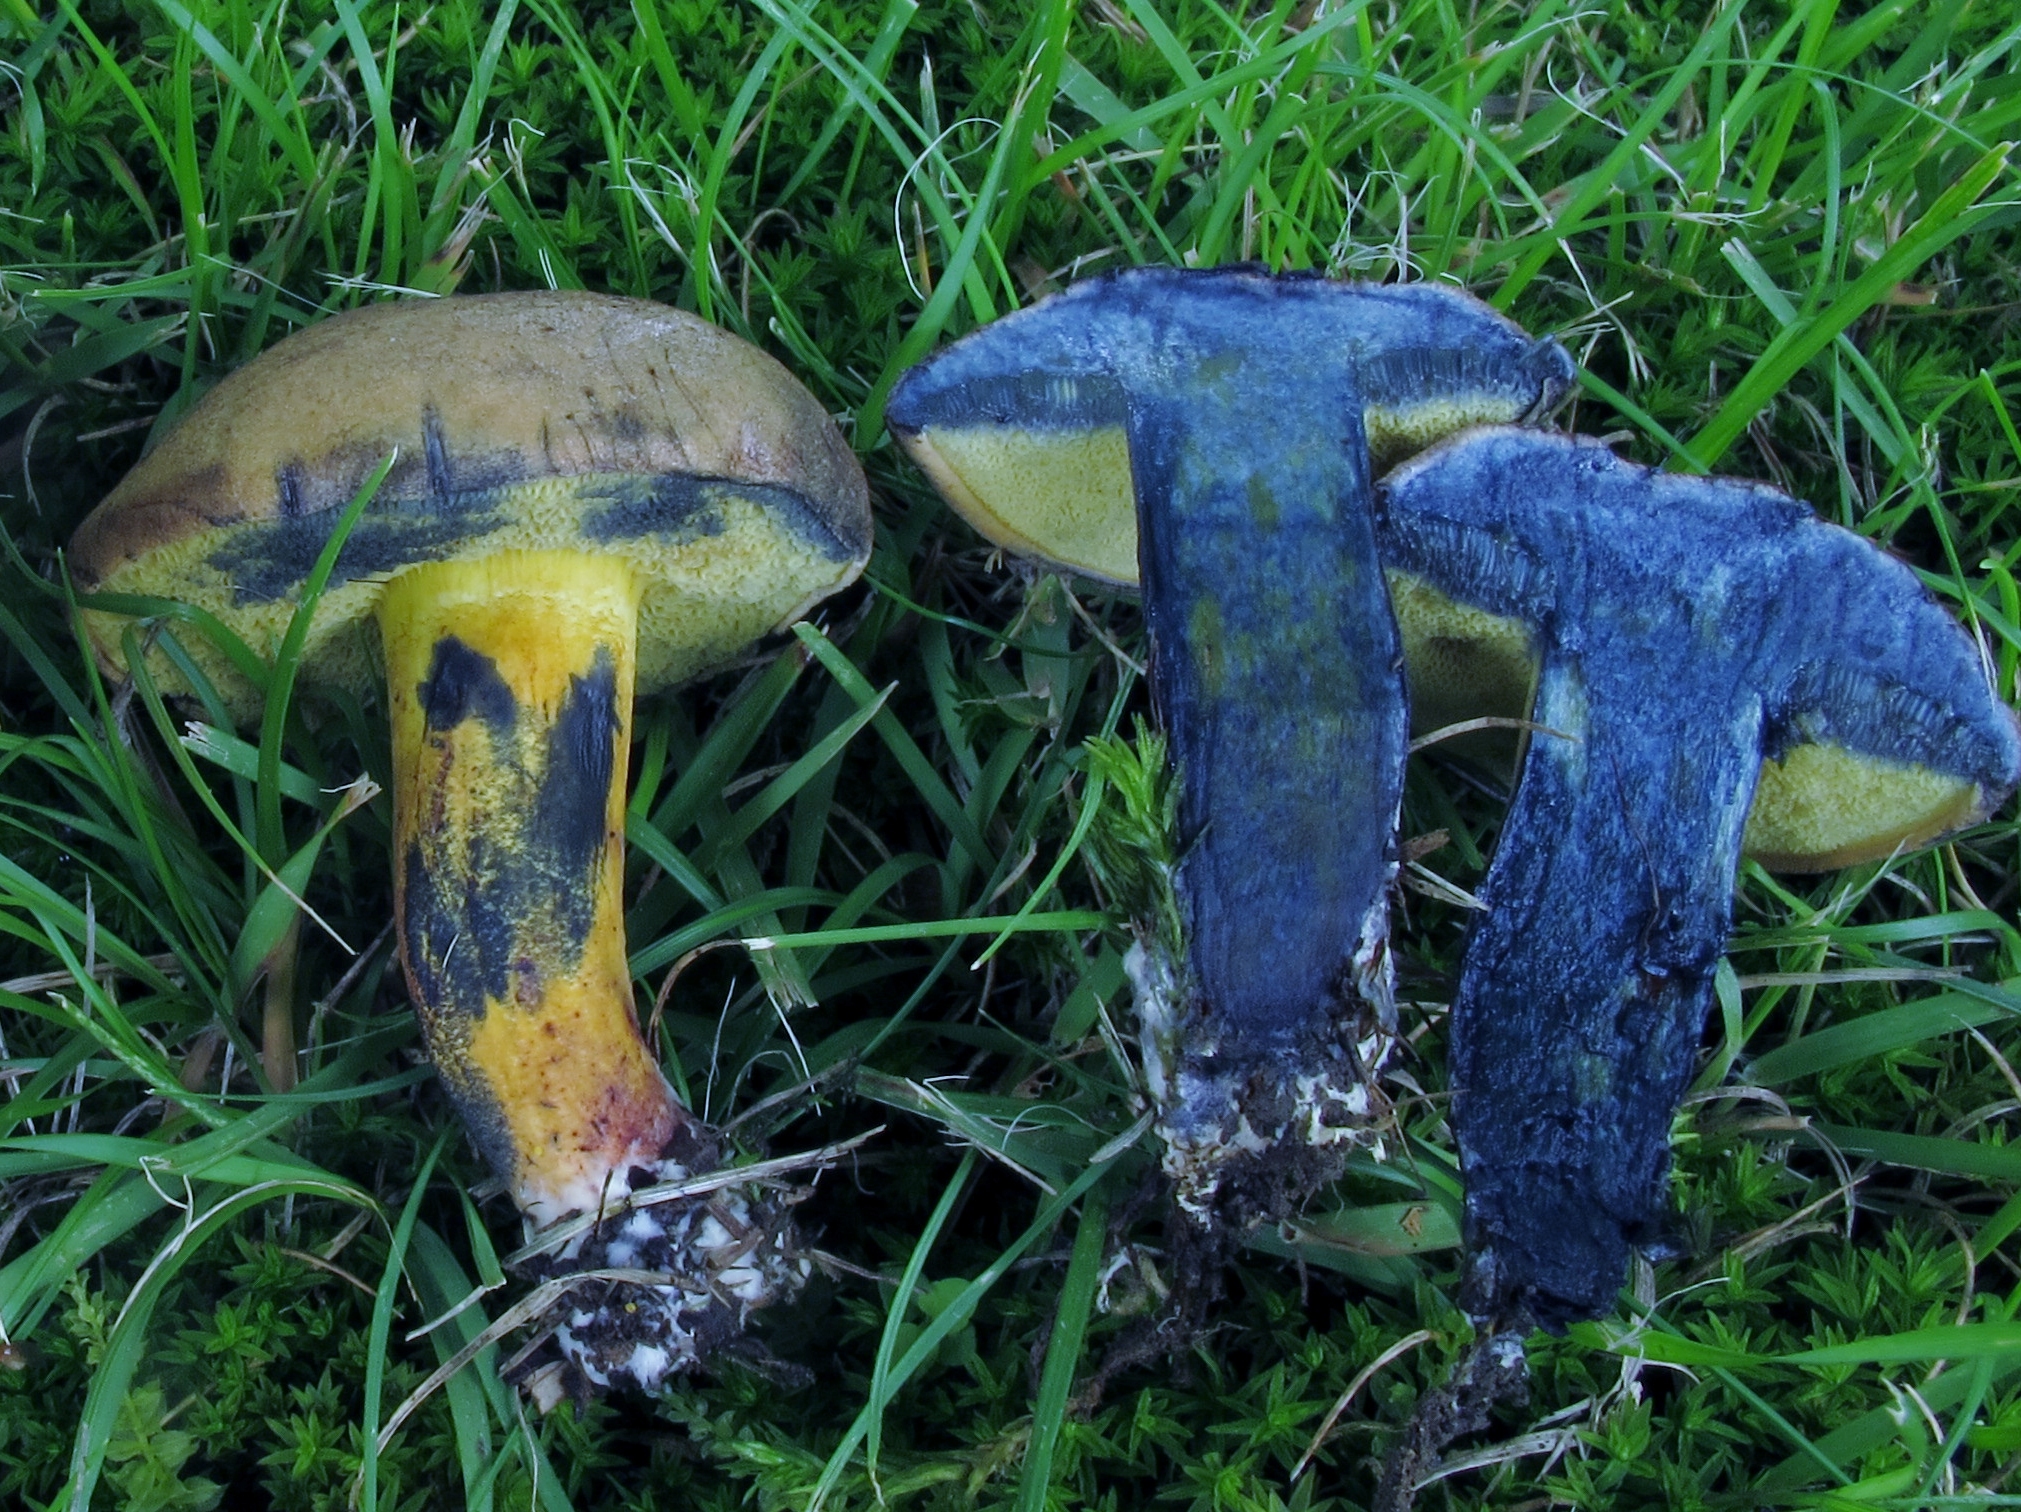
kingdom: Fungi
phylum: Basidiomycota
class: Agaricomycetes
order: Boletales
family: Boletaceae
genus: Cyanoboletus
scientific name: Cyanoboletus pulverulentus
